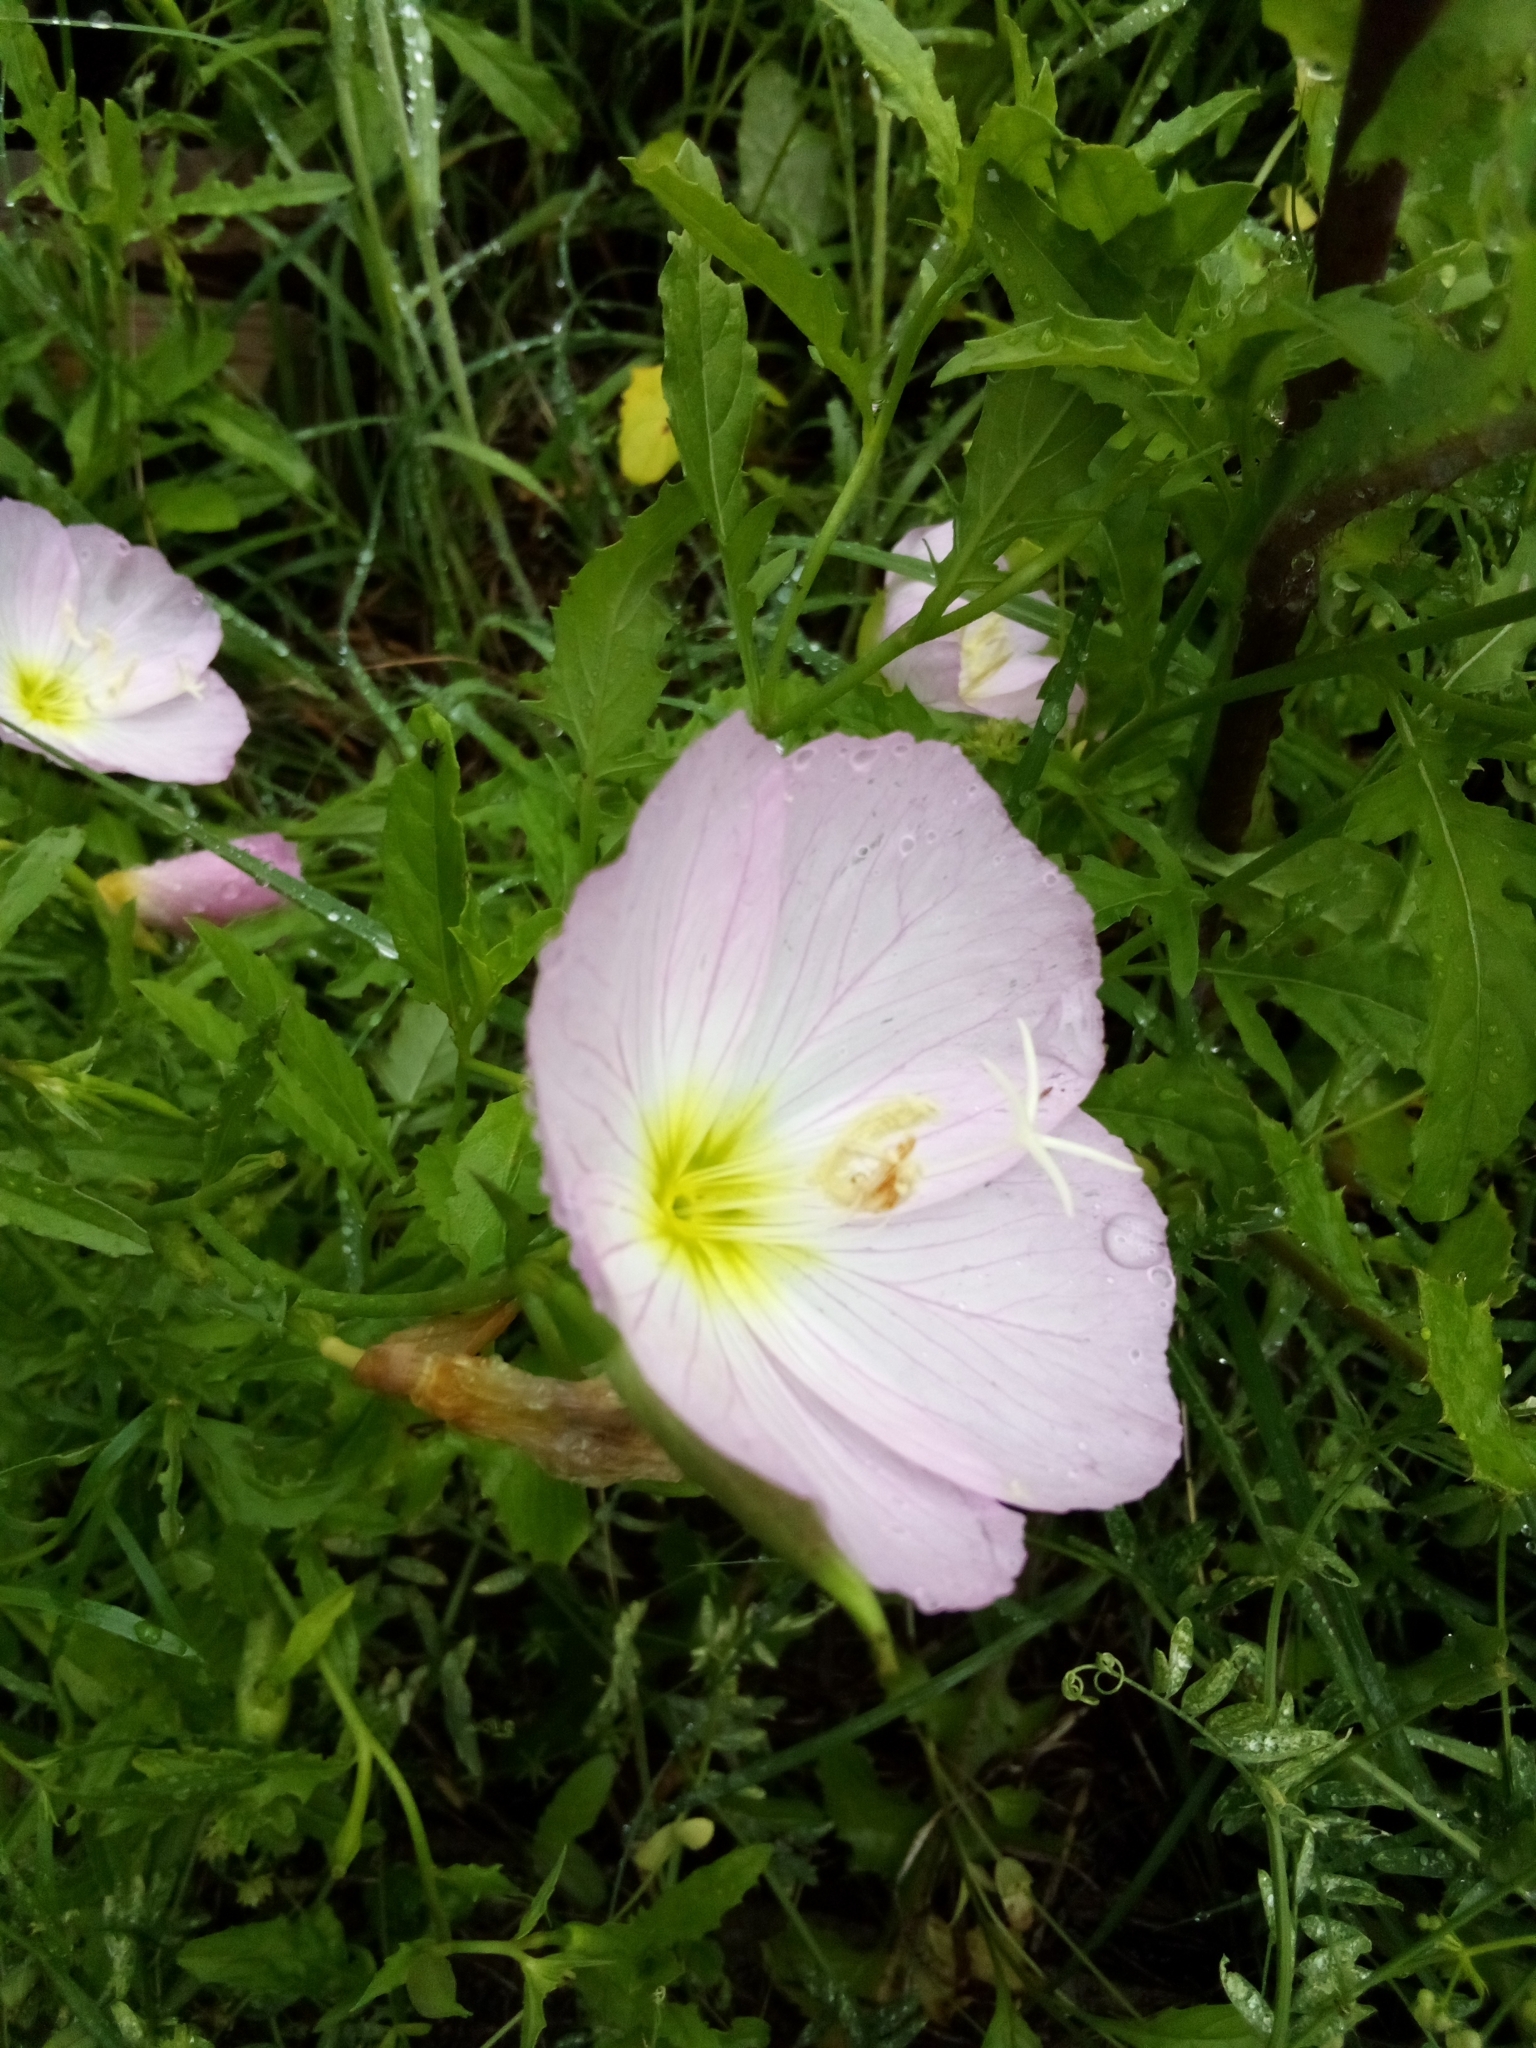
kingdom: Plantae
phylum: Tracheophyta
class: Magnoliopsida
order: Myrtales
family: Onagraceae
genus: Oenothera
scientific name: Oenothera speciosa
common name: White evening-primrose
